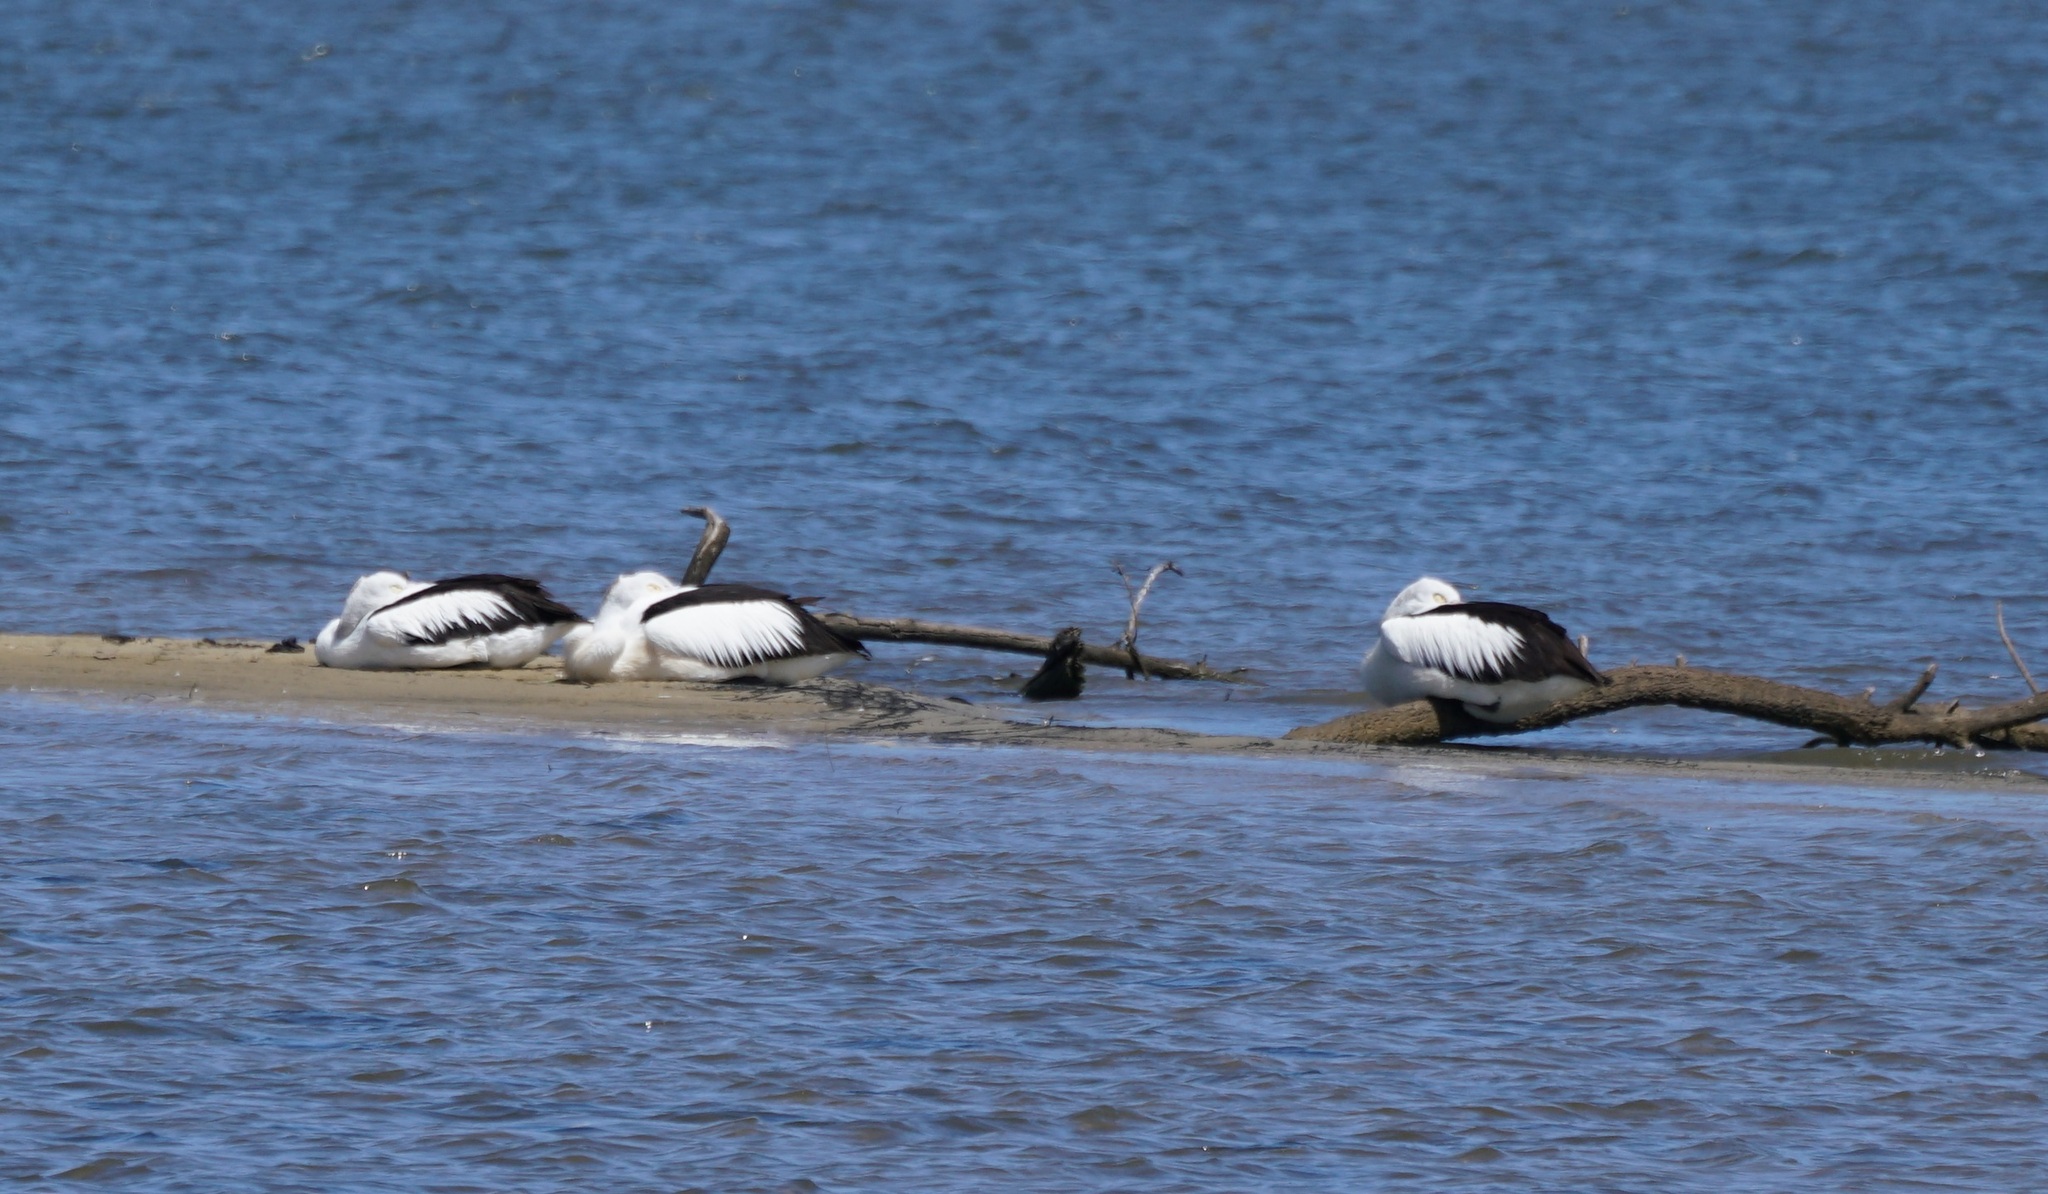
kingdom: Animalia
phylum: Chordata
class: Aves
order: Pelecaniformes
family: Pelecanidae
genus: Pelecanus
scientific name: Pelecanus conspicillatus
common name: Australian pelican
